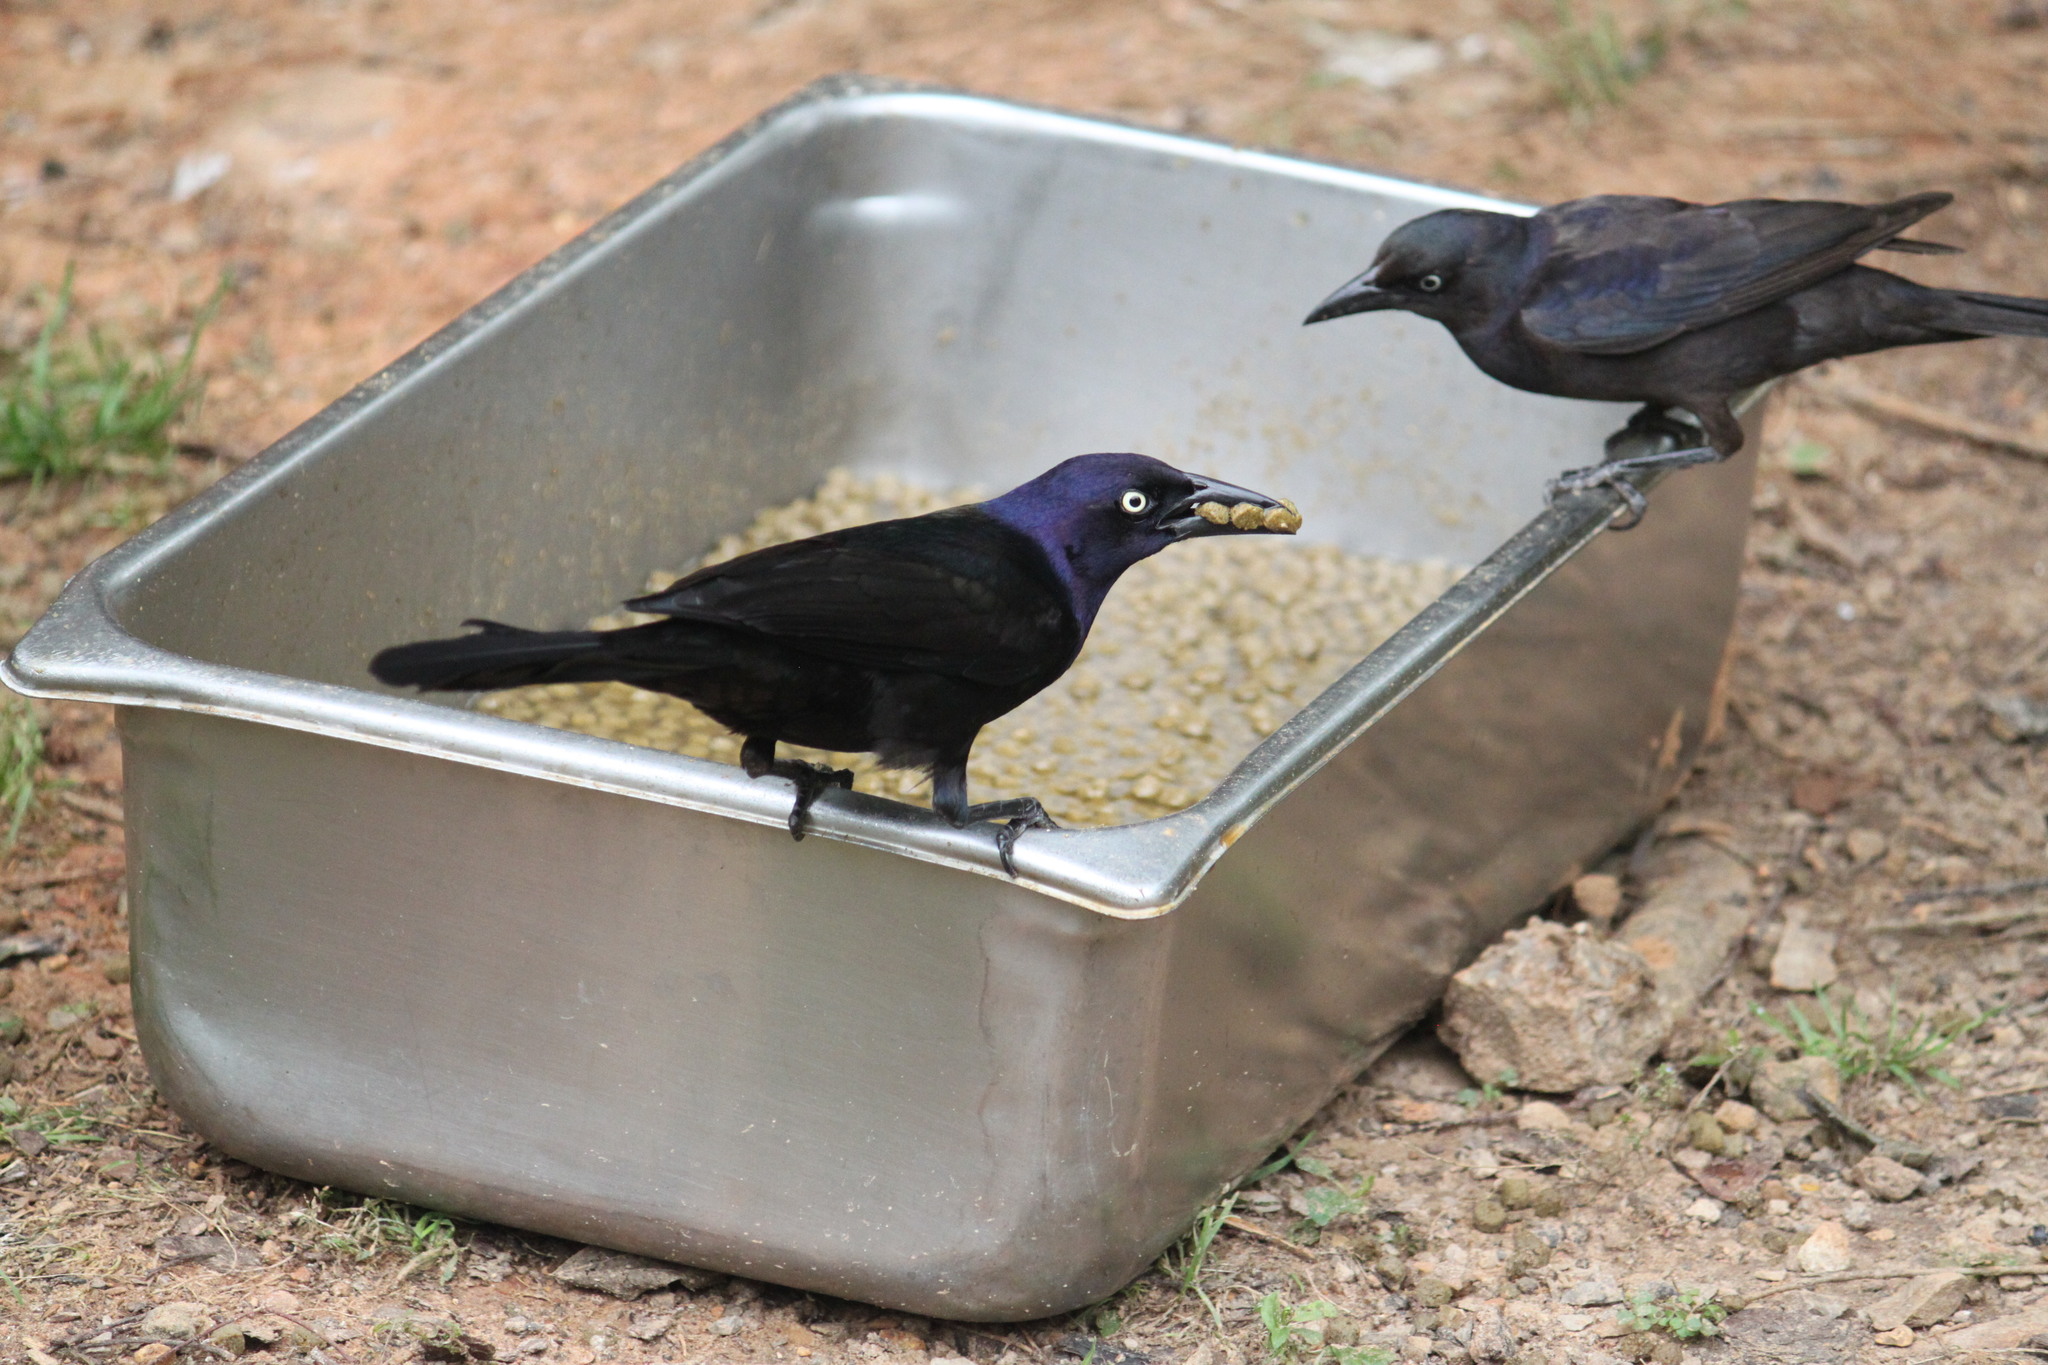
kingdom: Animalia
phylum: Chordata
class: Aves
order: Passeriformes
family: Icteridae
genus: Quiscalus
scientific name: Quiscalus quiscula
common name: Common grackle
